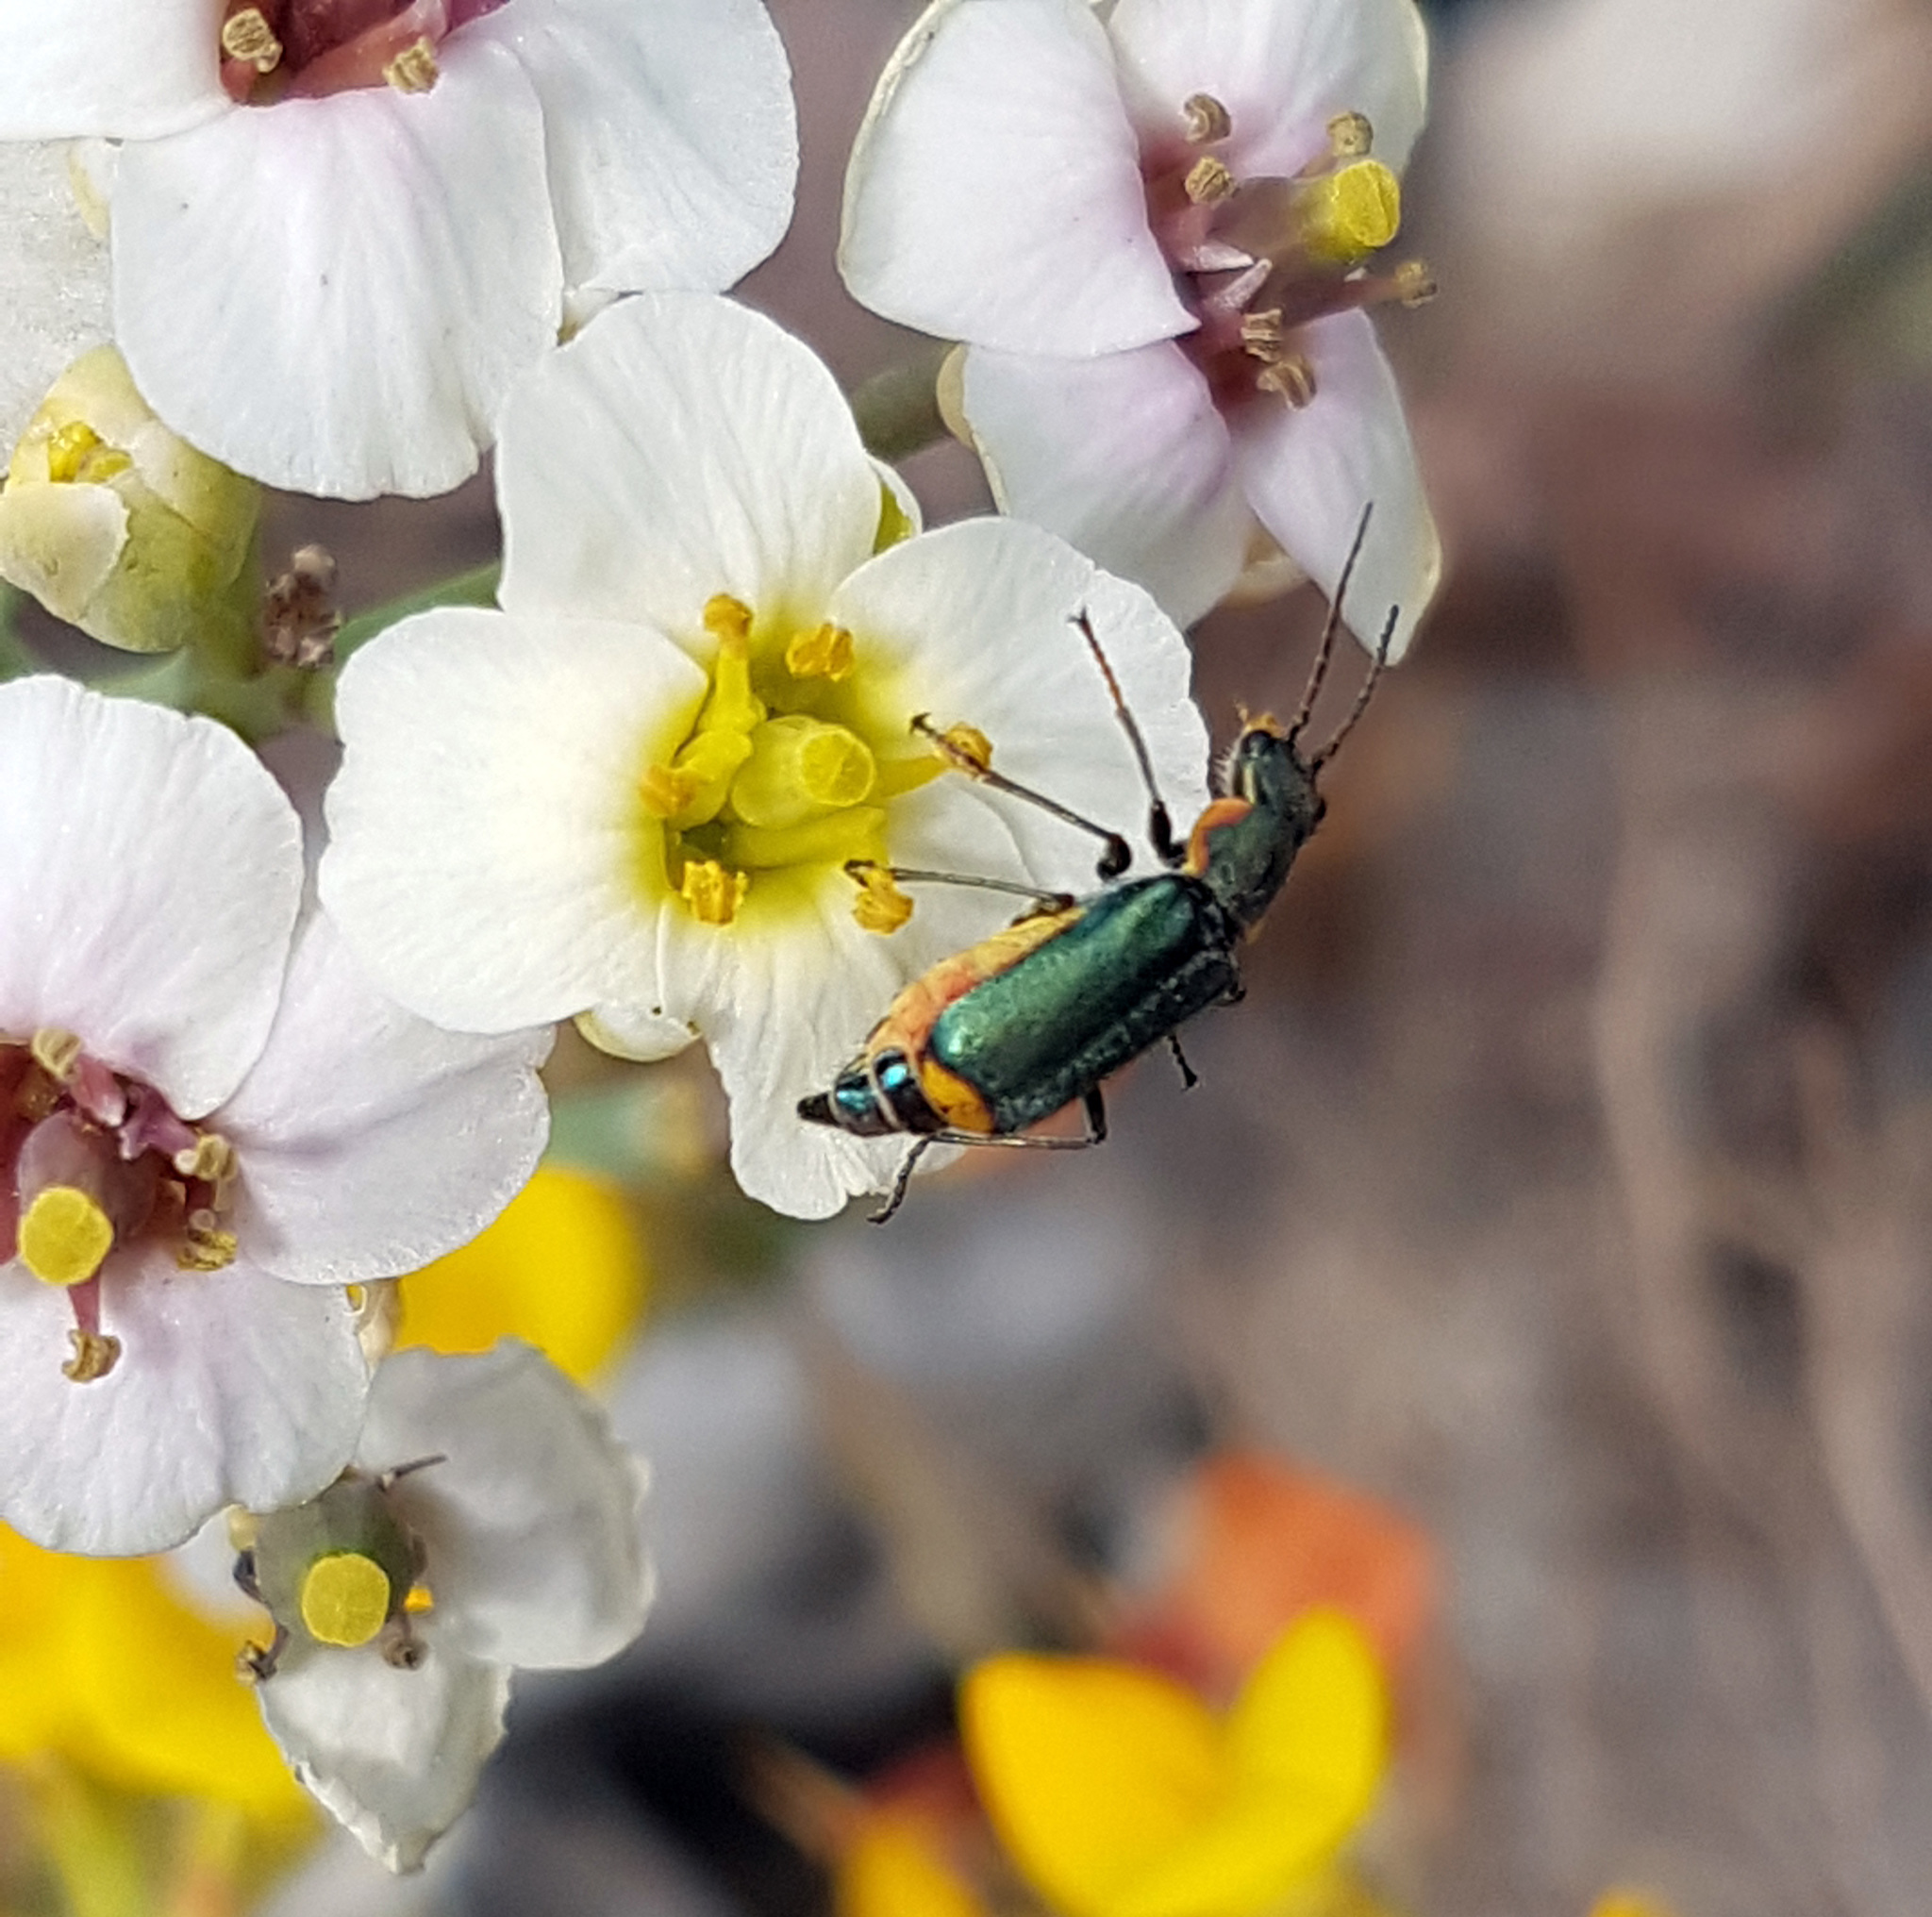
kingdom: Animalia
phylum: Arthropoda
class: Insecta
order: Coleoptera
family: Malachiidae
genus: Clanoptilus
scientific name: Clanoptilus marginellus
